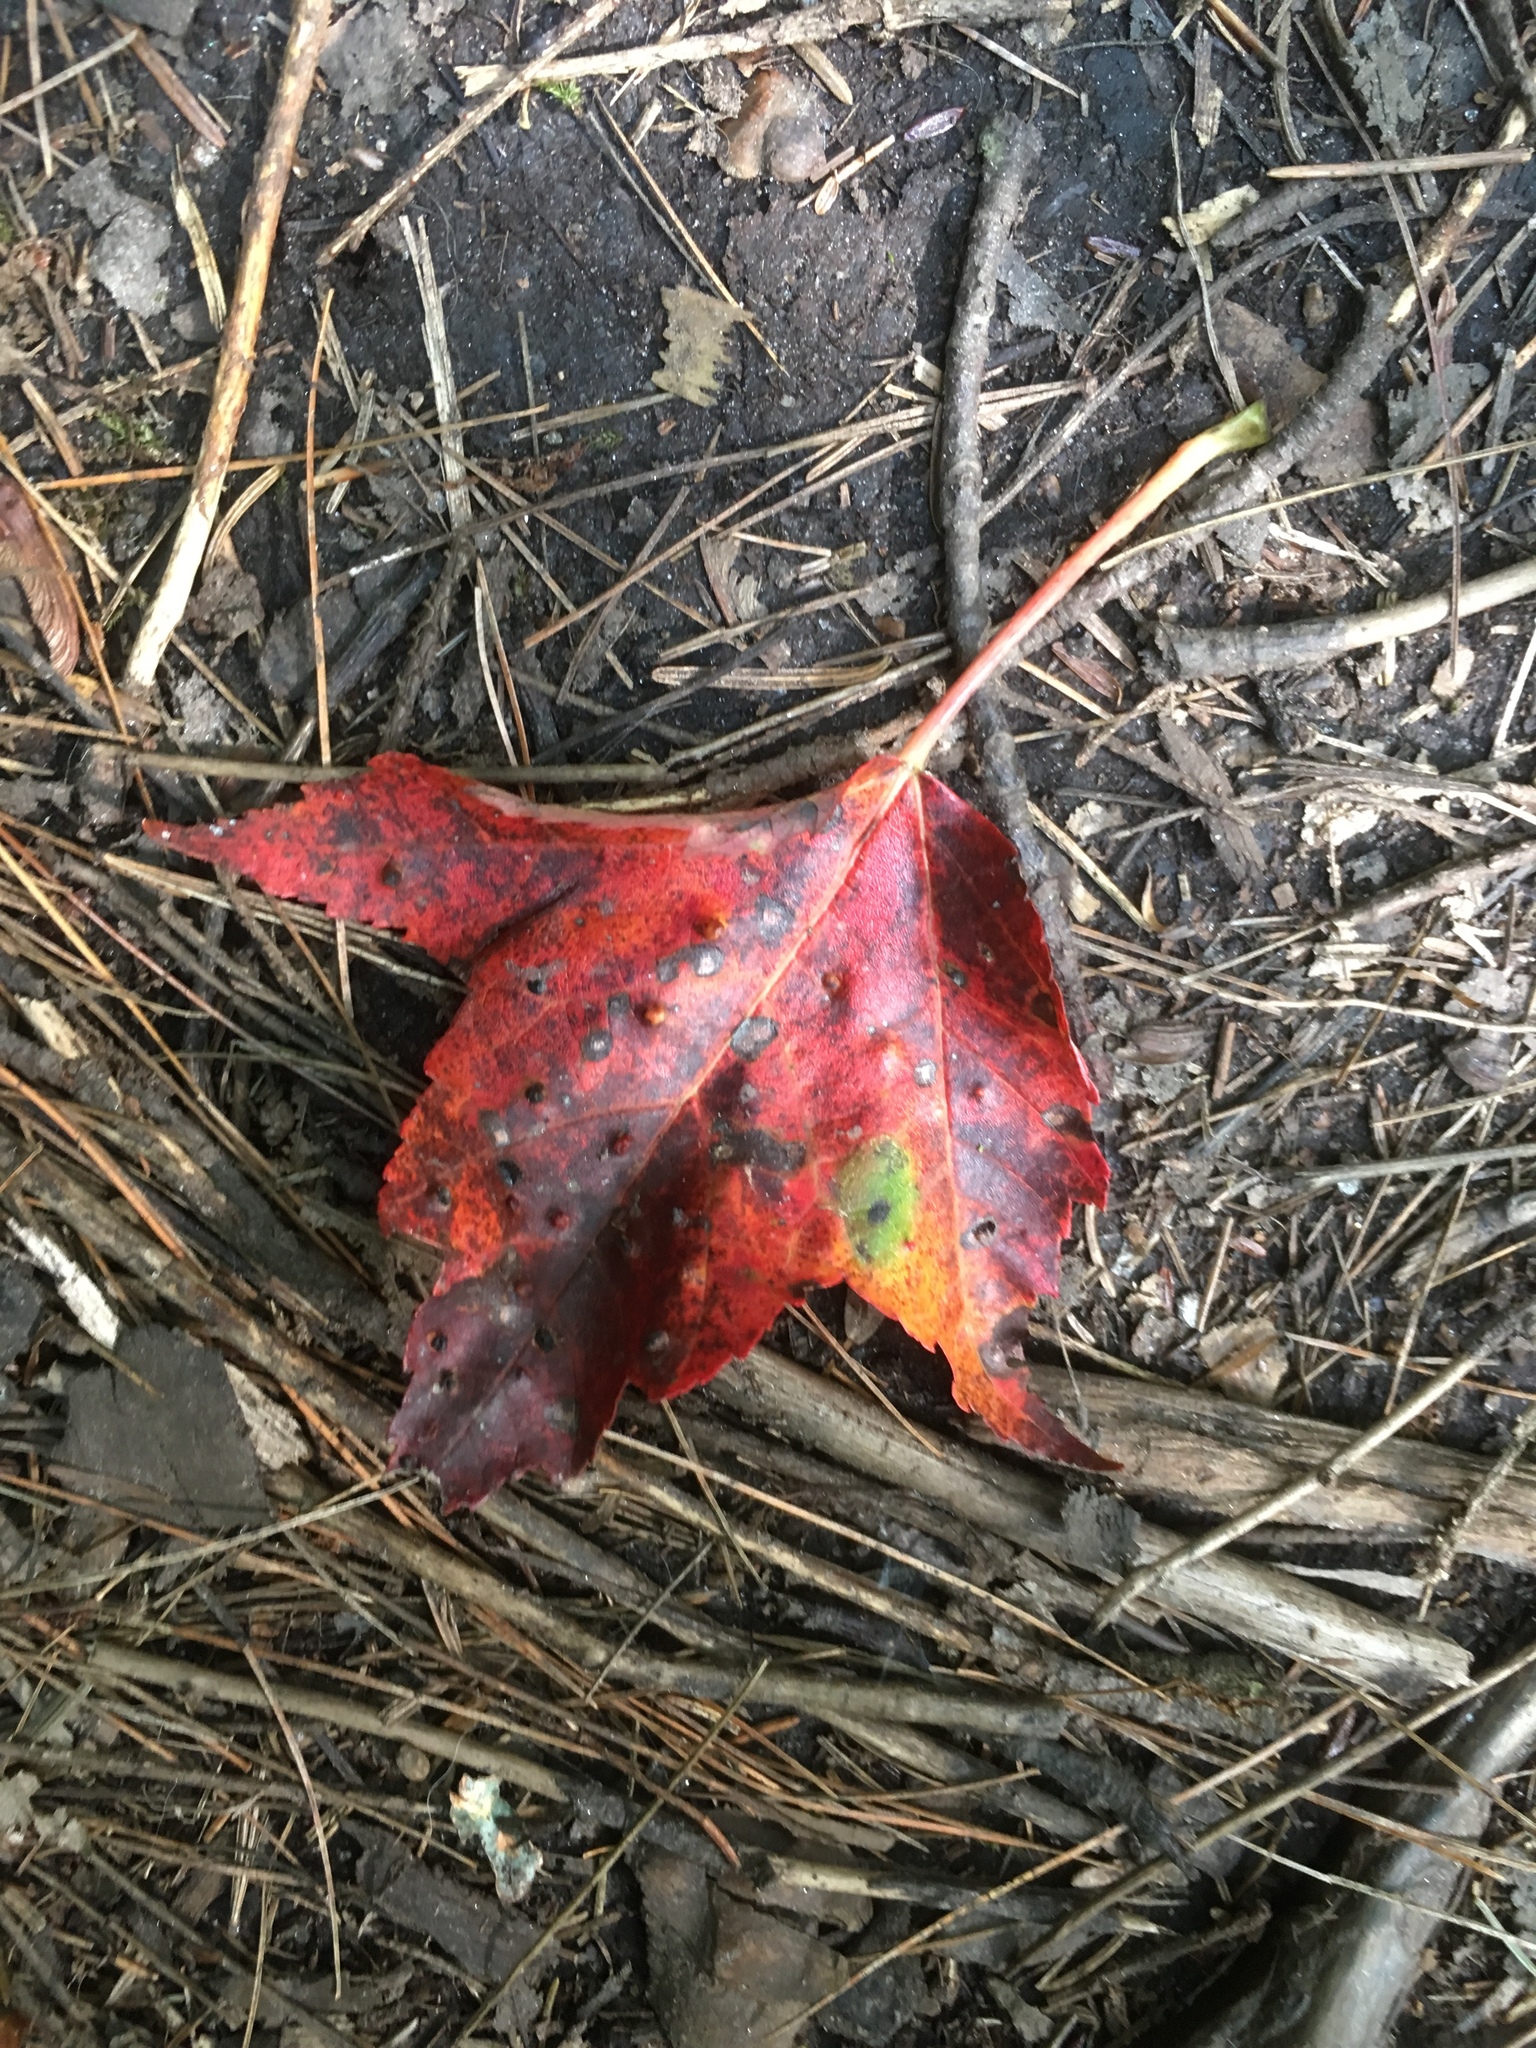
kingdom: Plantae
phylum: Tracheophyta
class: Magnoliopsida
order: Sapindales
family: Sapindaceae
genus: Acer
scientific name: Acer rubrum
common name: Red maple
